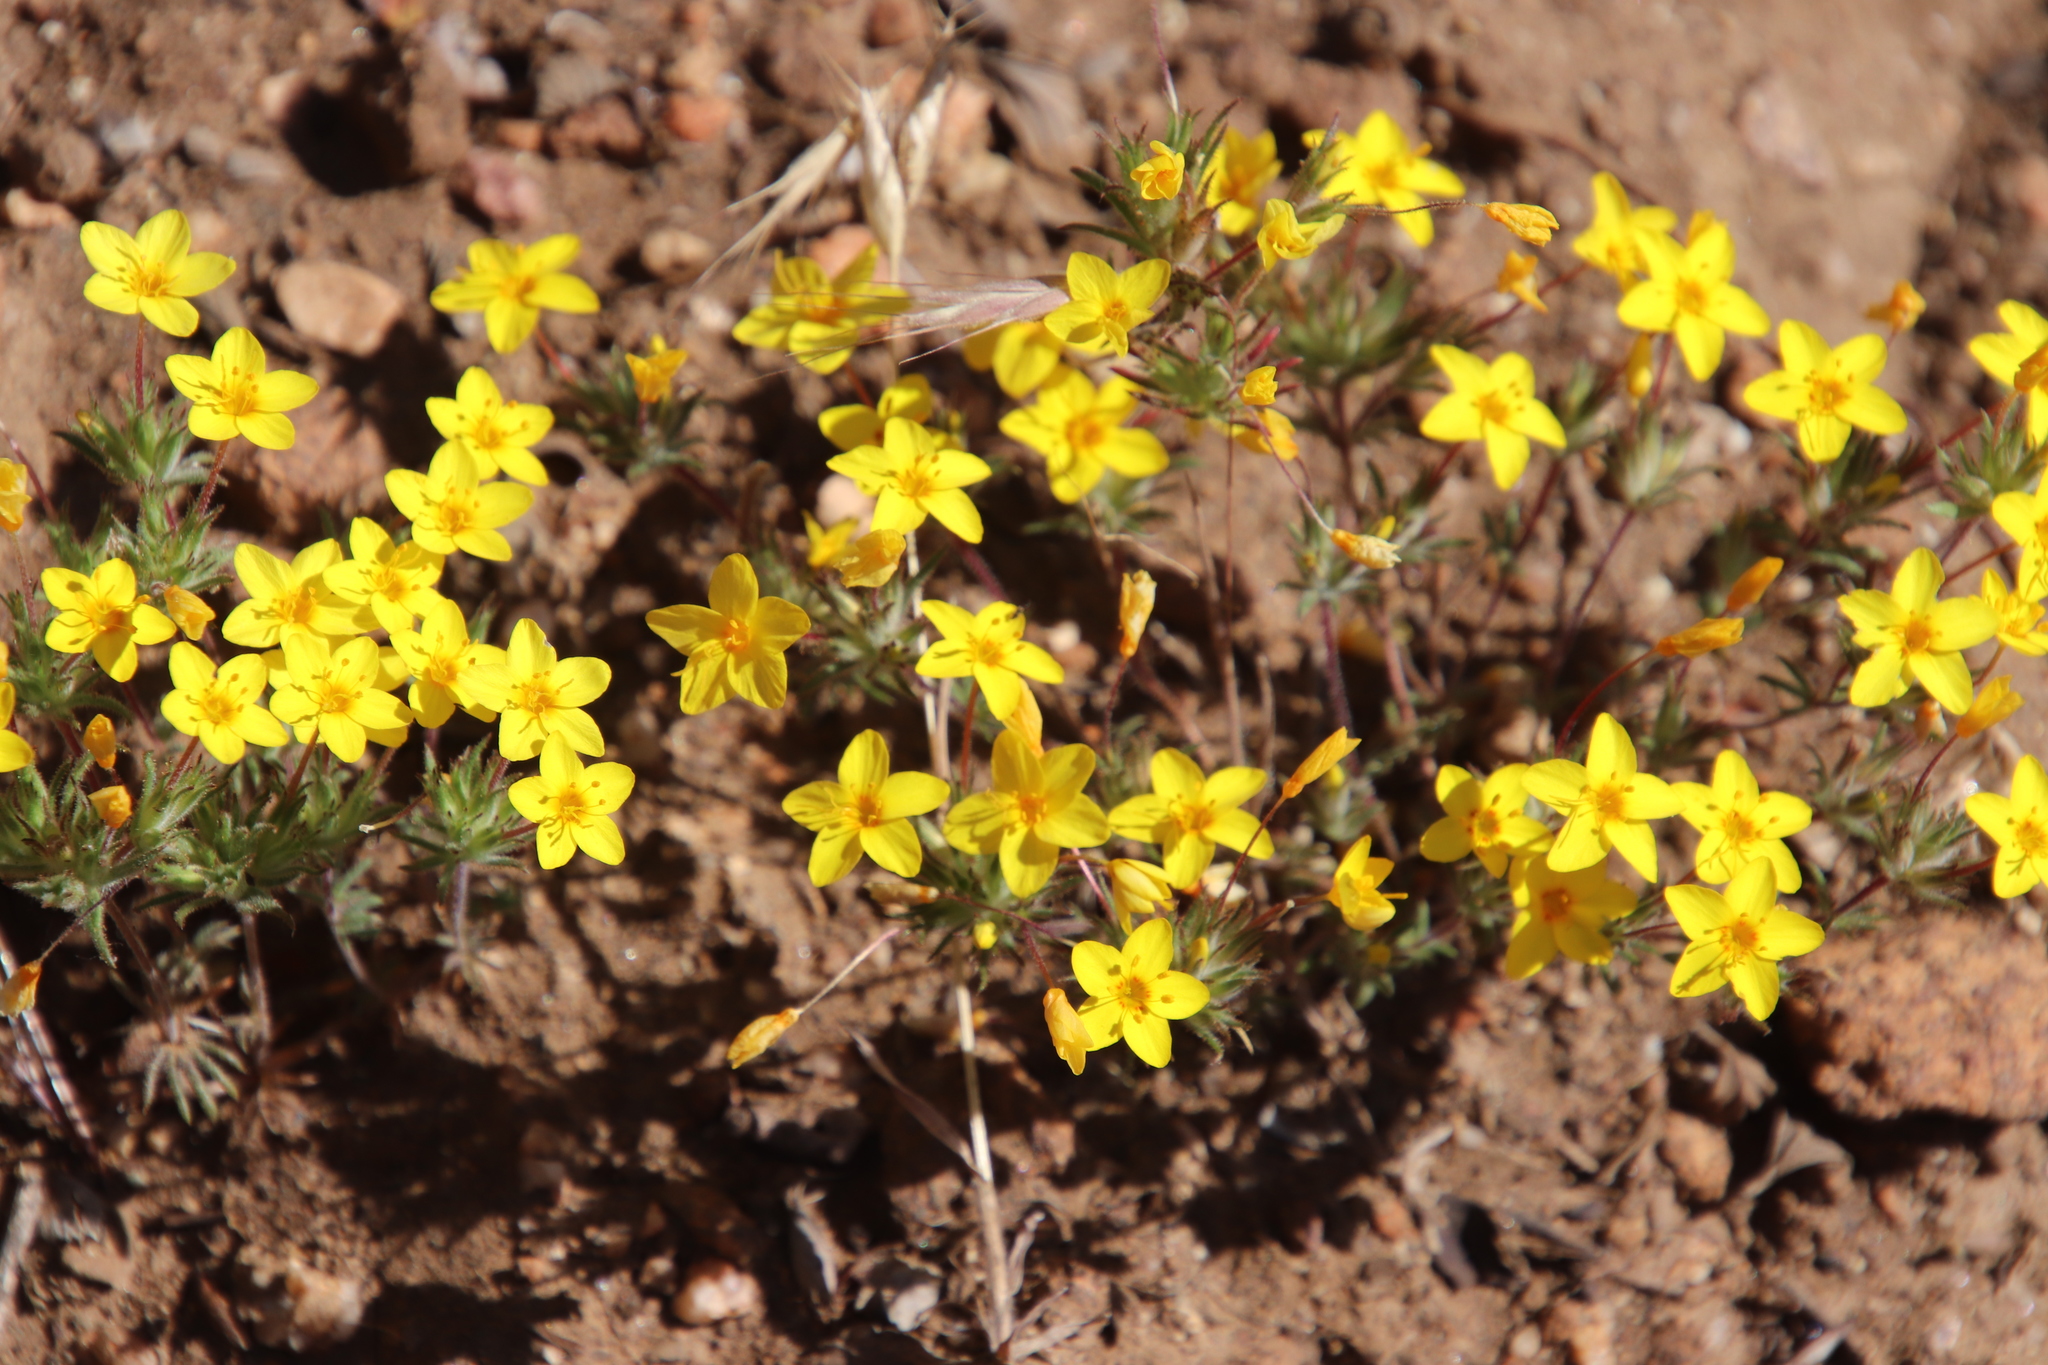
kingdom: Plantae
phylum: Tracheophyta
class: Magnoliopsida
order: Ericales
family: Polemoniaceae
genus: Leptosiphon
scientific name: Leptosiphon parviflorus
